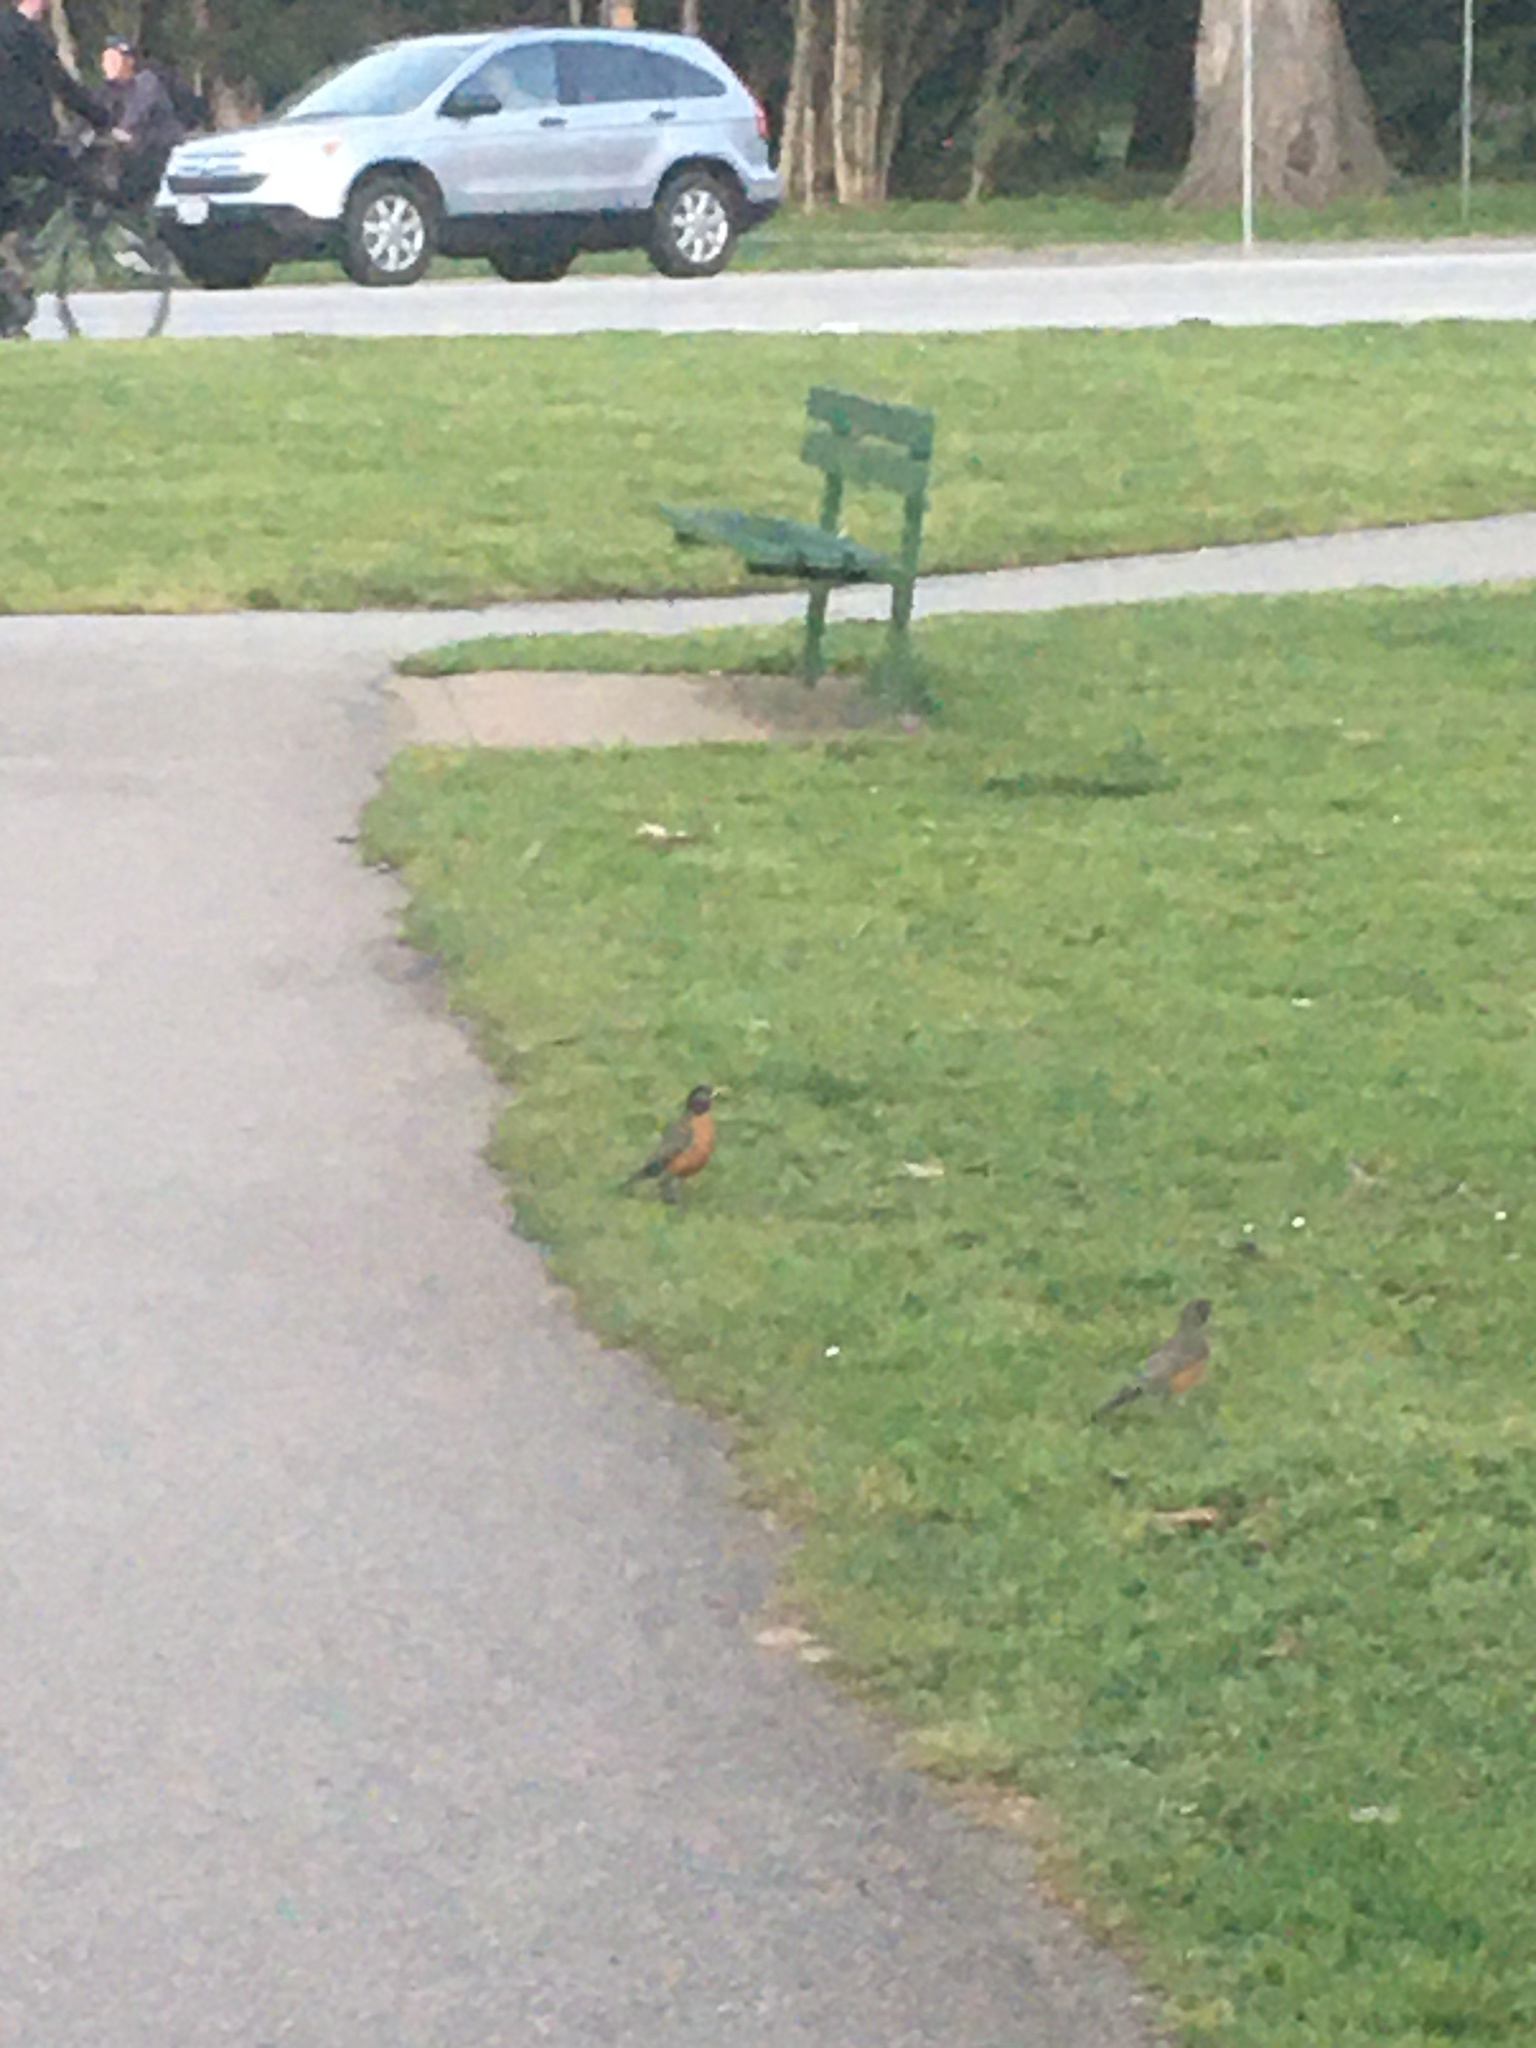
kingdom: Animalia
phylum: Chordata
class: Aves
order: Passeriformes
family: Turdidae
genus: Turdus
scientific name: Turdus migratorius
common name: American robin
